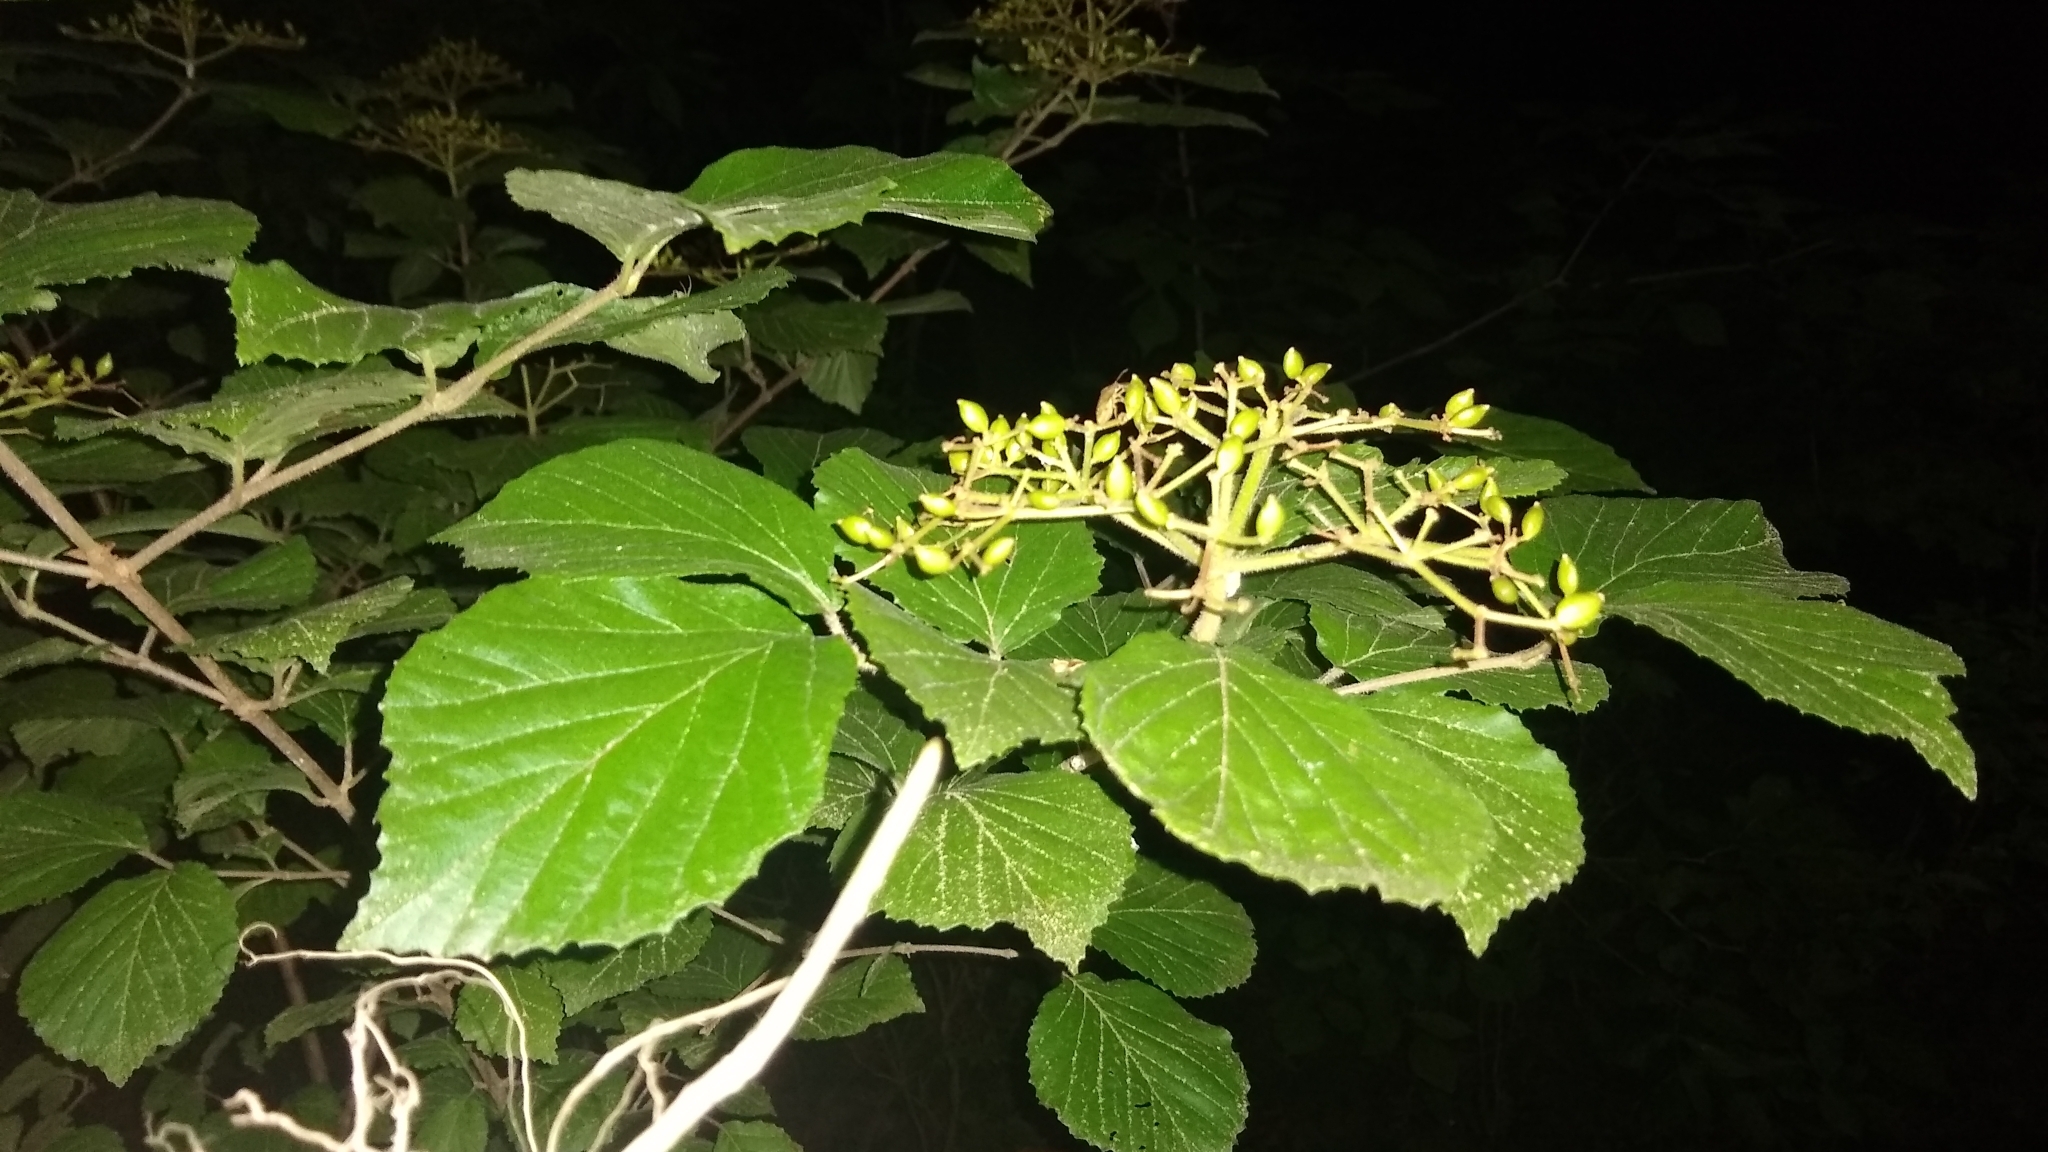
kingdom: Plantae
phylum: Tracheophyta
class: Magnoliopsida
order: Dipsacales
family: Viburnaceae
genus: Viburnum
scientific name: Viburnum dilatatum
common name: Linden arrowwood
